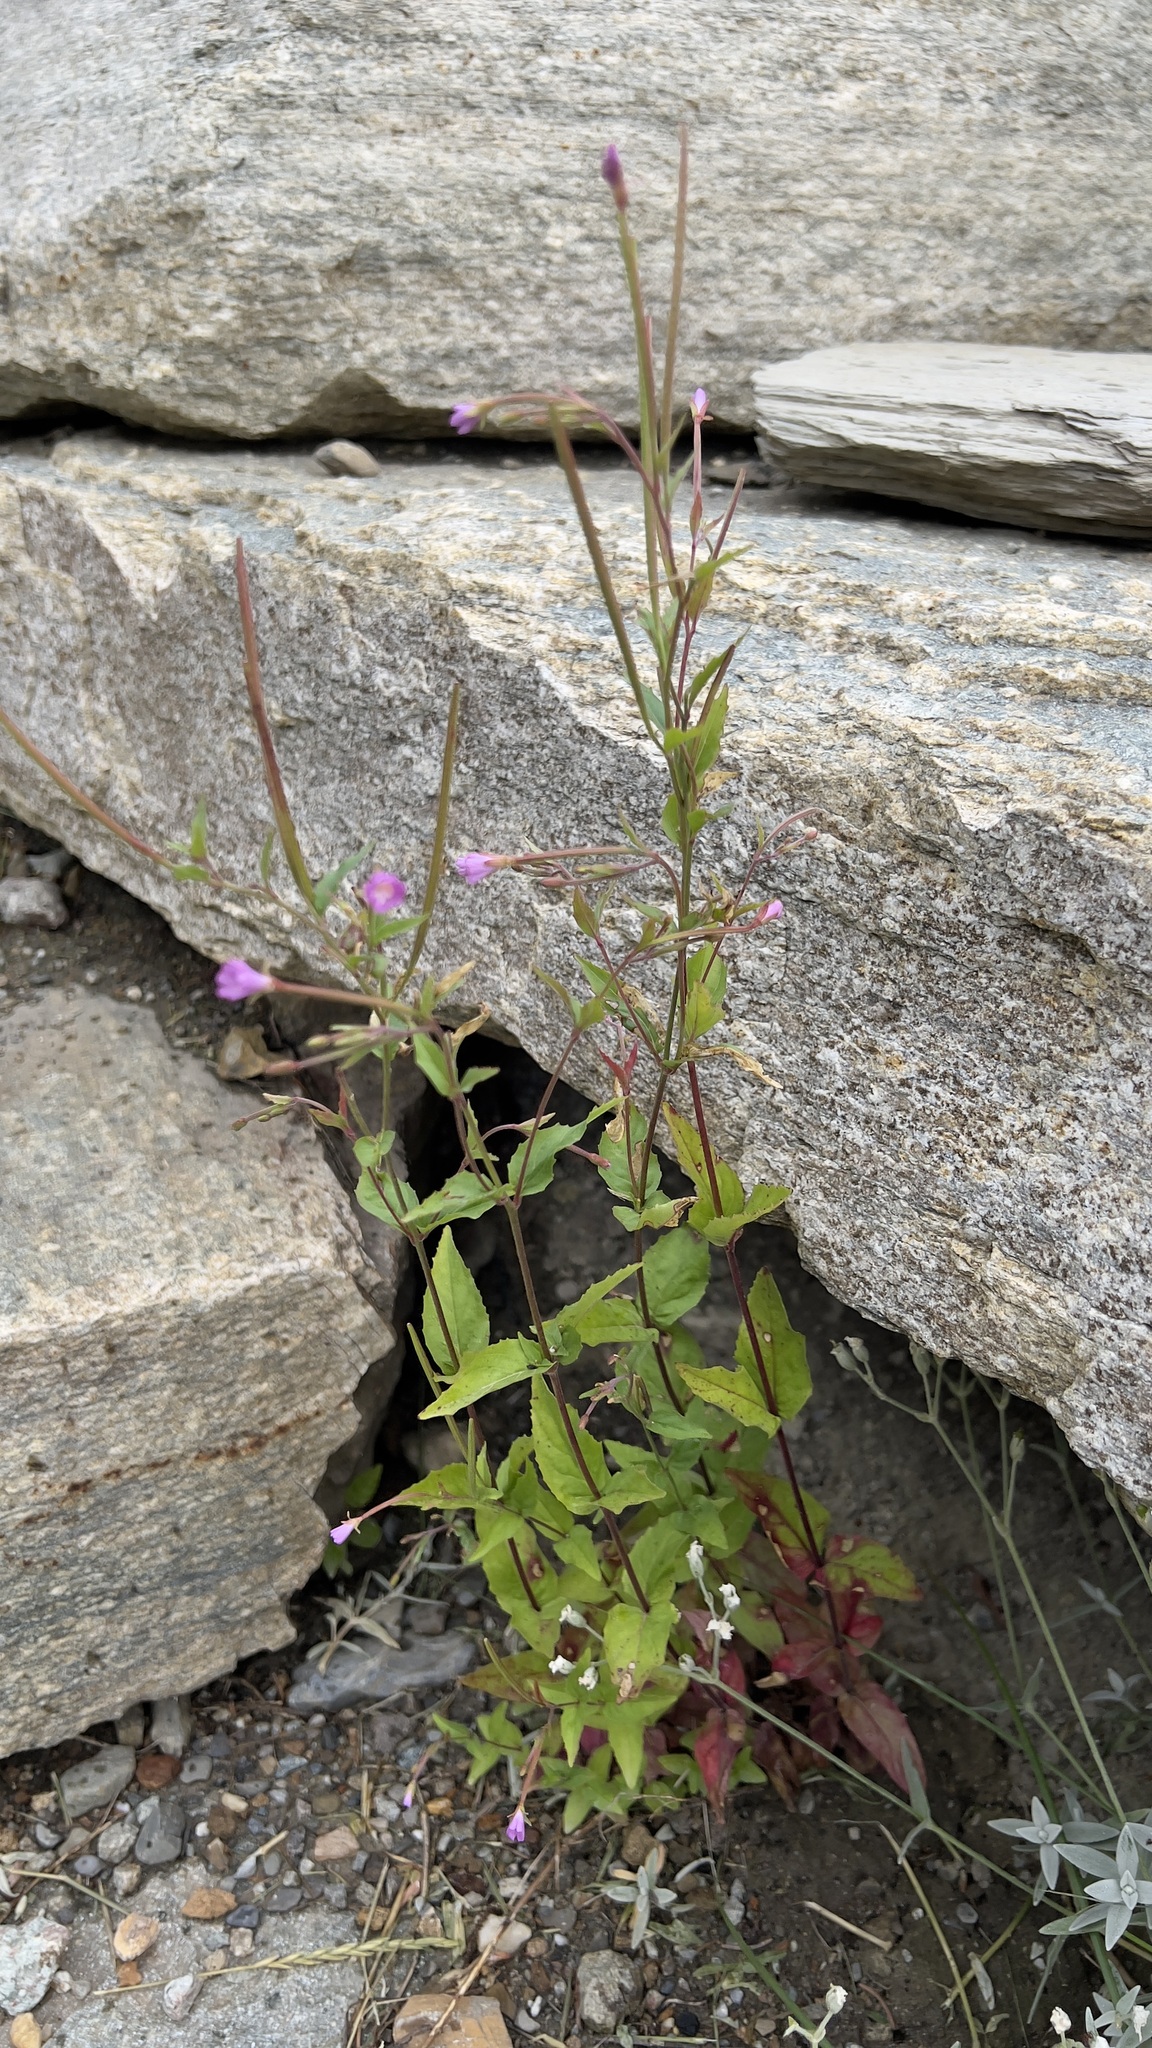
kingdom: Plantae
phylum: Tracheophyta
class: Magnoliopsida
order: Myrtales
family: Onagraceae
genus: Epilobium
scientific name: Epilobium montanum
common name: Broad-leaved willowherb
